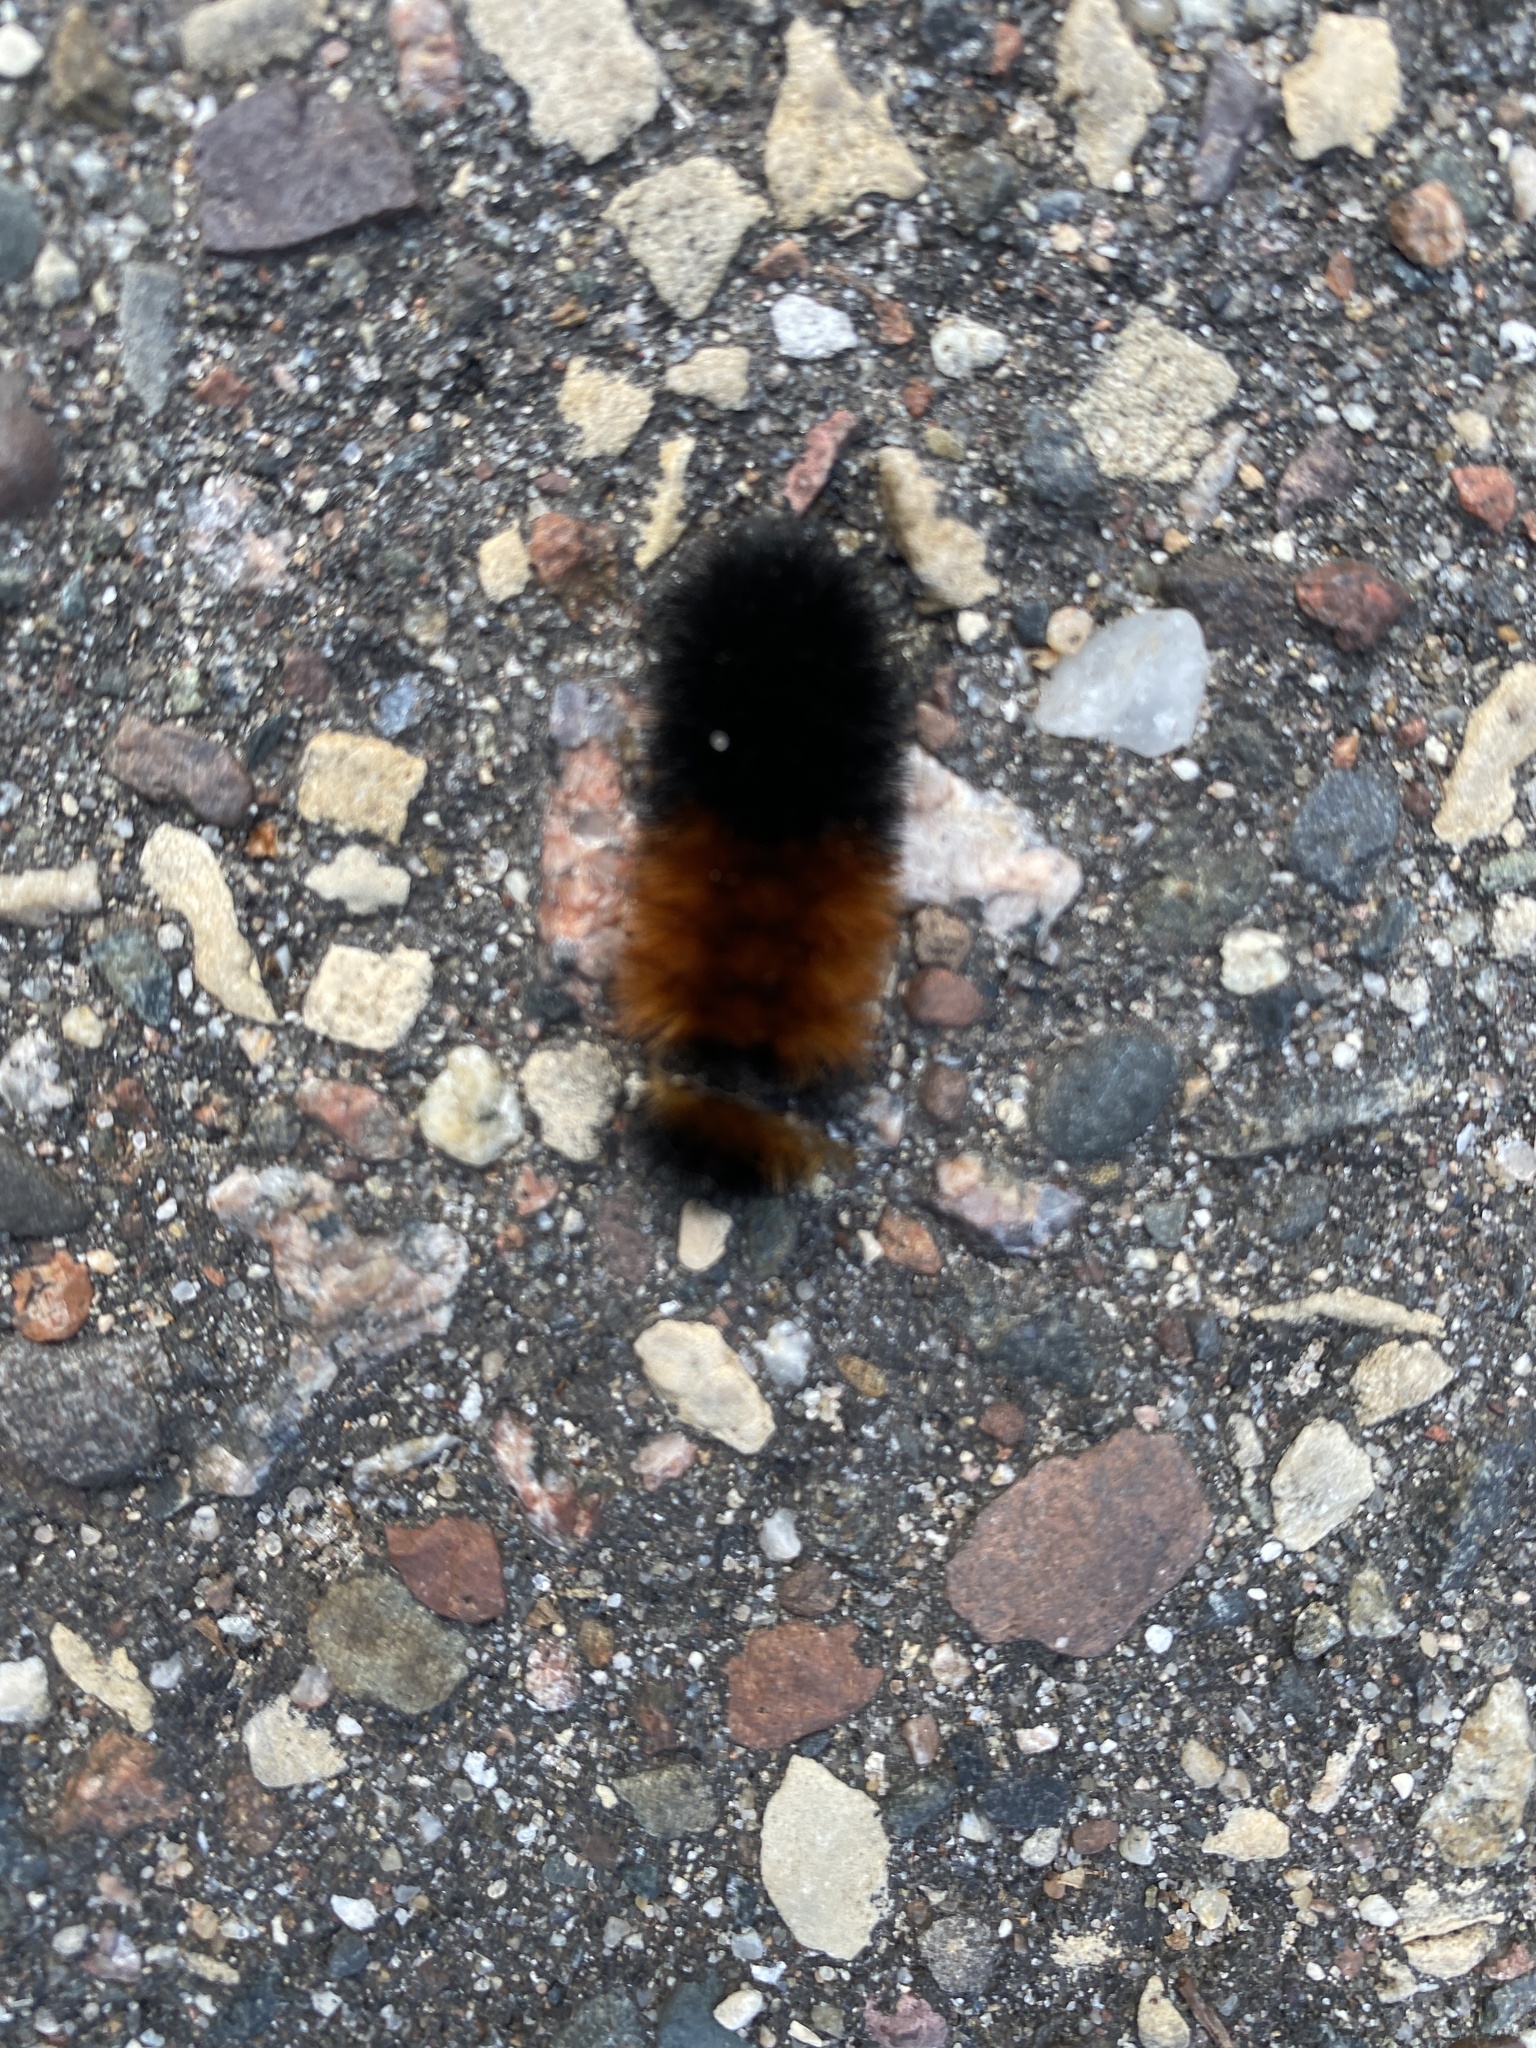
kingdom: Animalia
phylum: Arthropoda
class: Insecta
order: Lepidoptera
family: Erebidae
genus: Pyrrharctia
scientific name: Pyrrharctia isabella
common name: Isabella tiger moth
